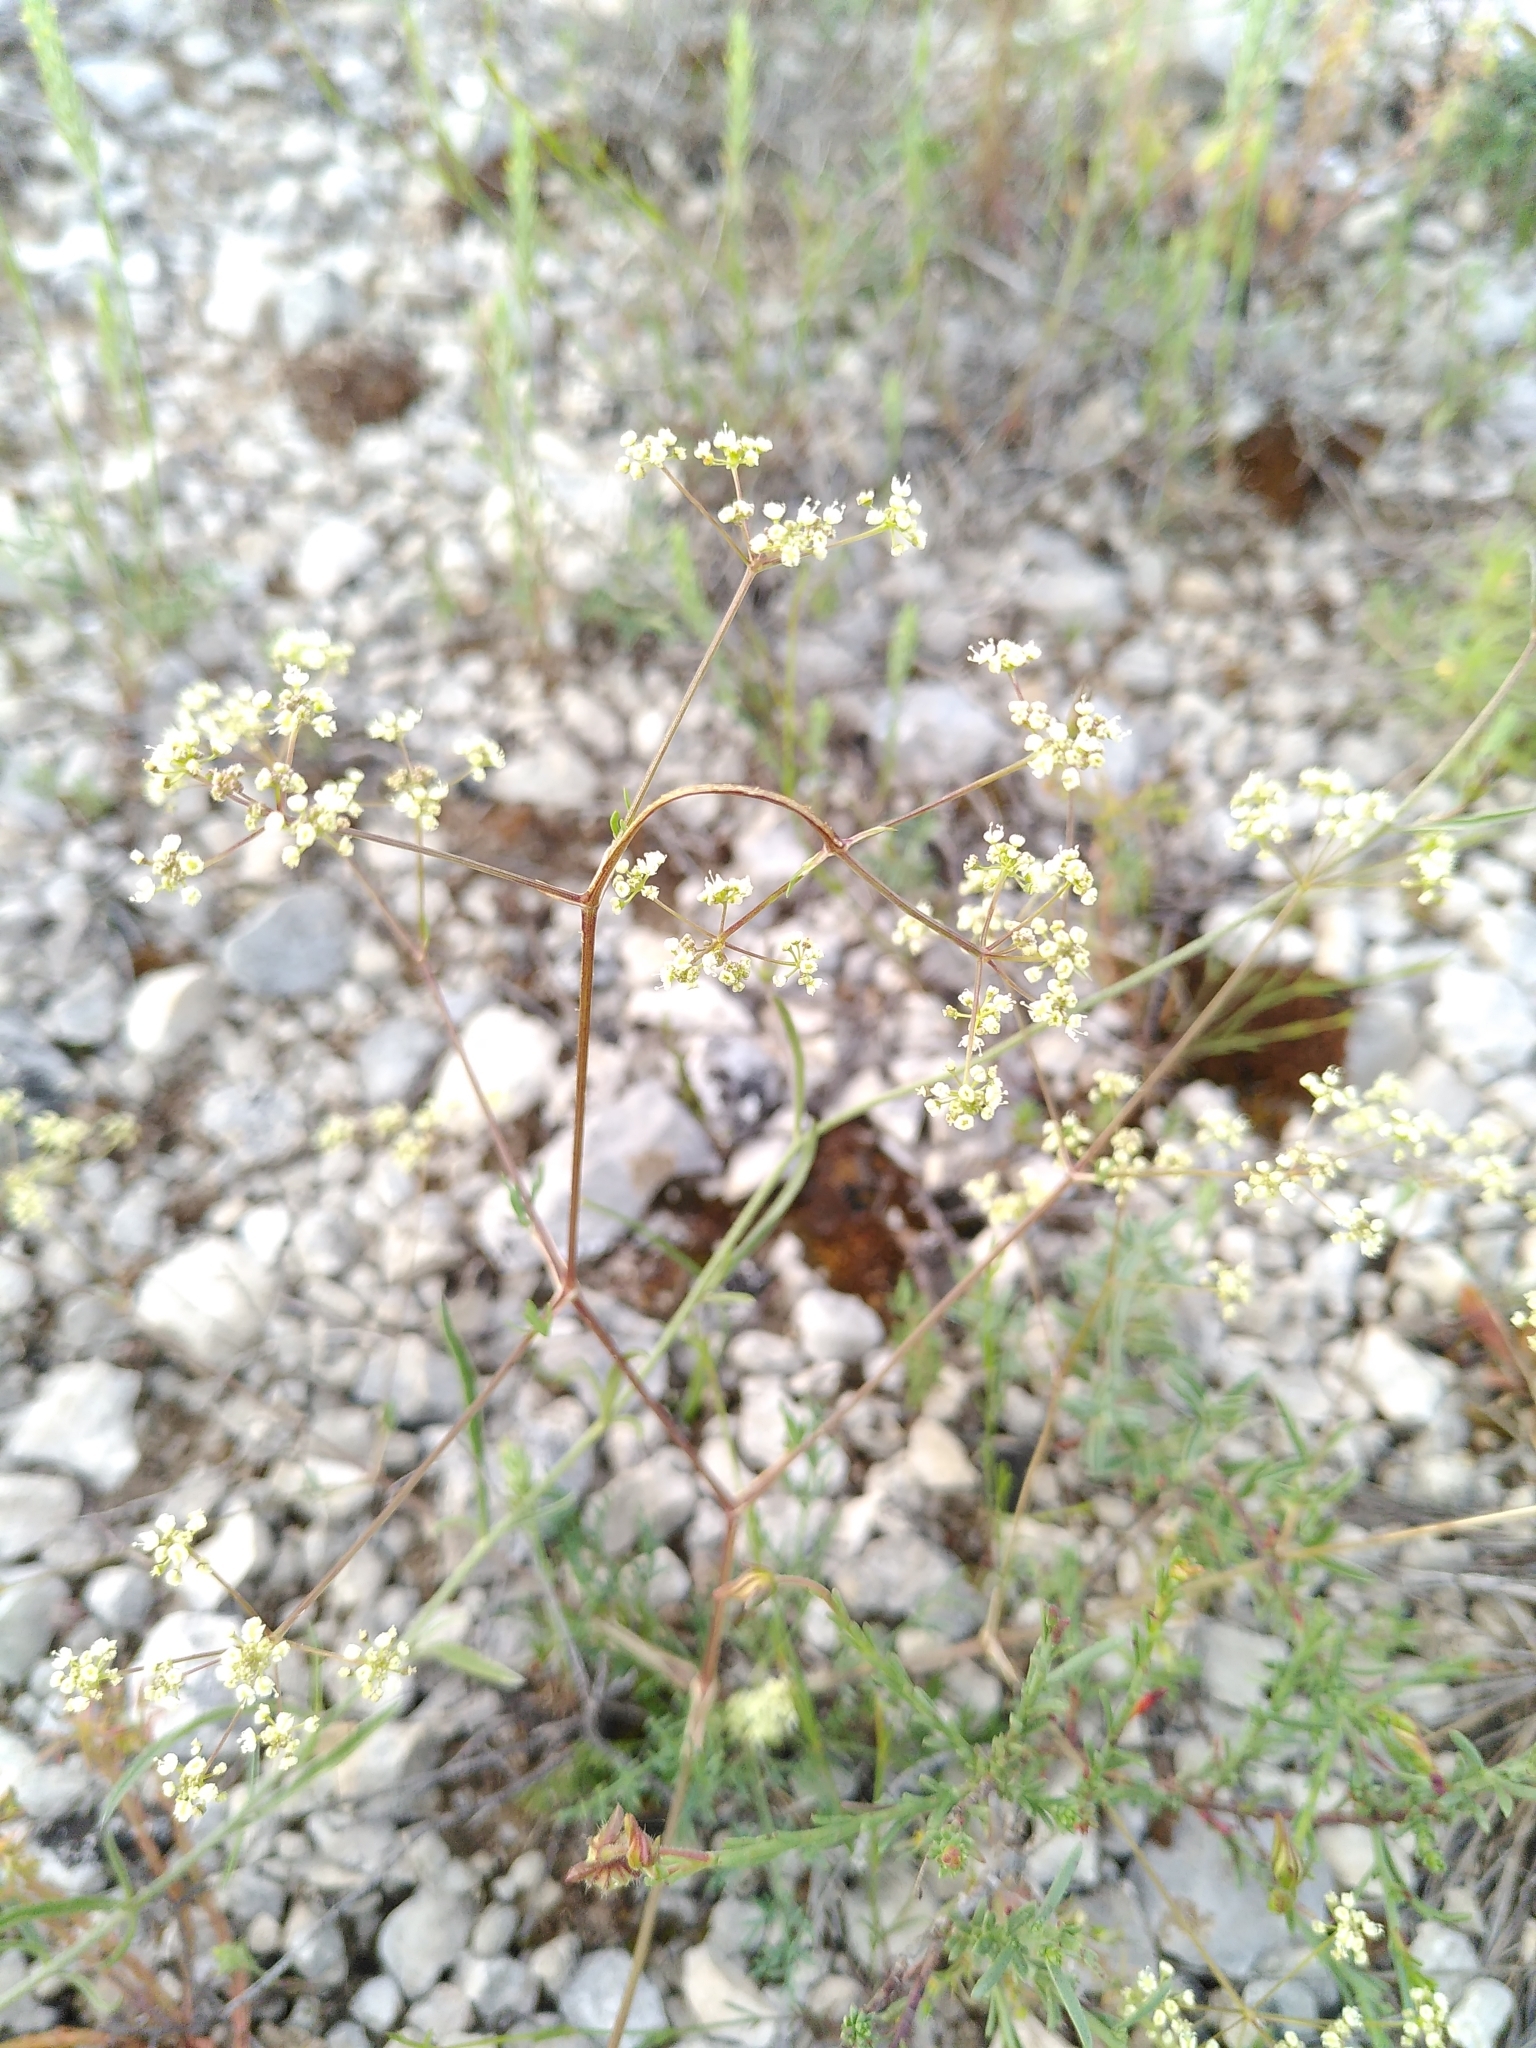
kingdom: Plantae
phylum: Tracheophyta
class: Magnoliopsida
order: Apiales
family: Apiaceae
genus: Trinia
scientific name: Trinia glauca
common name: Honewort
